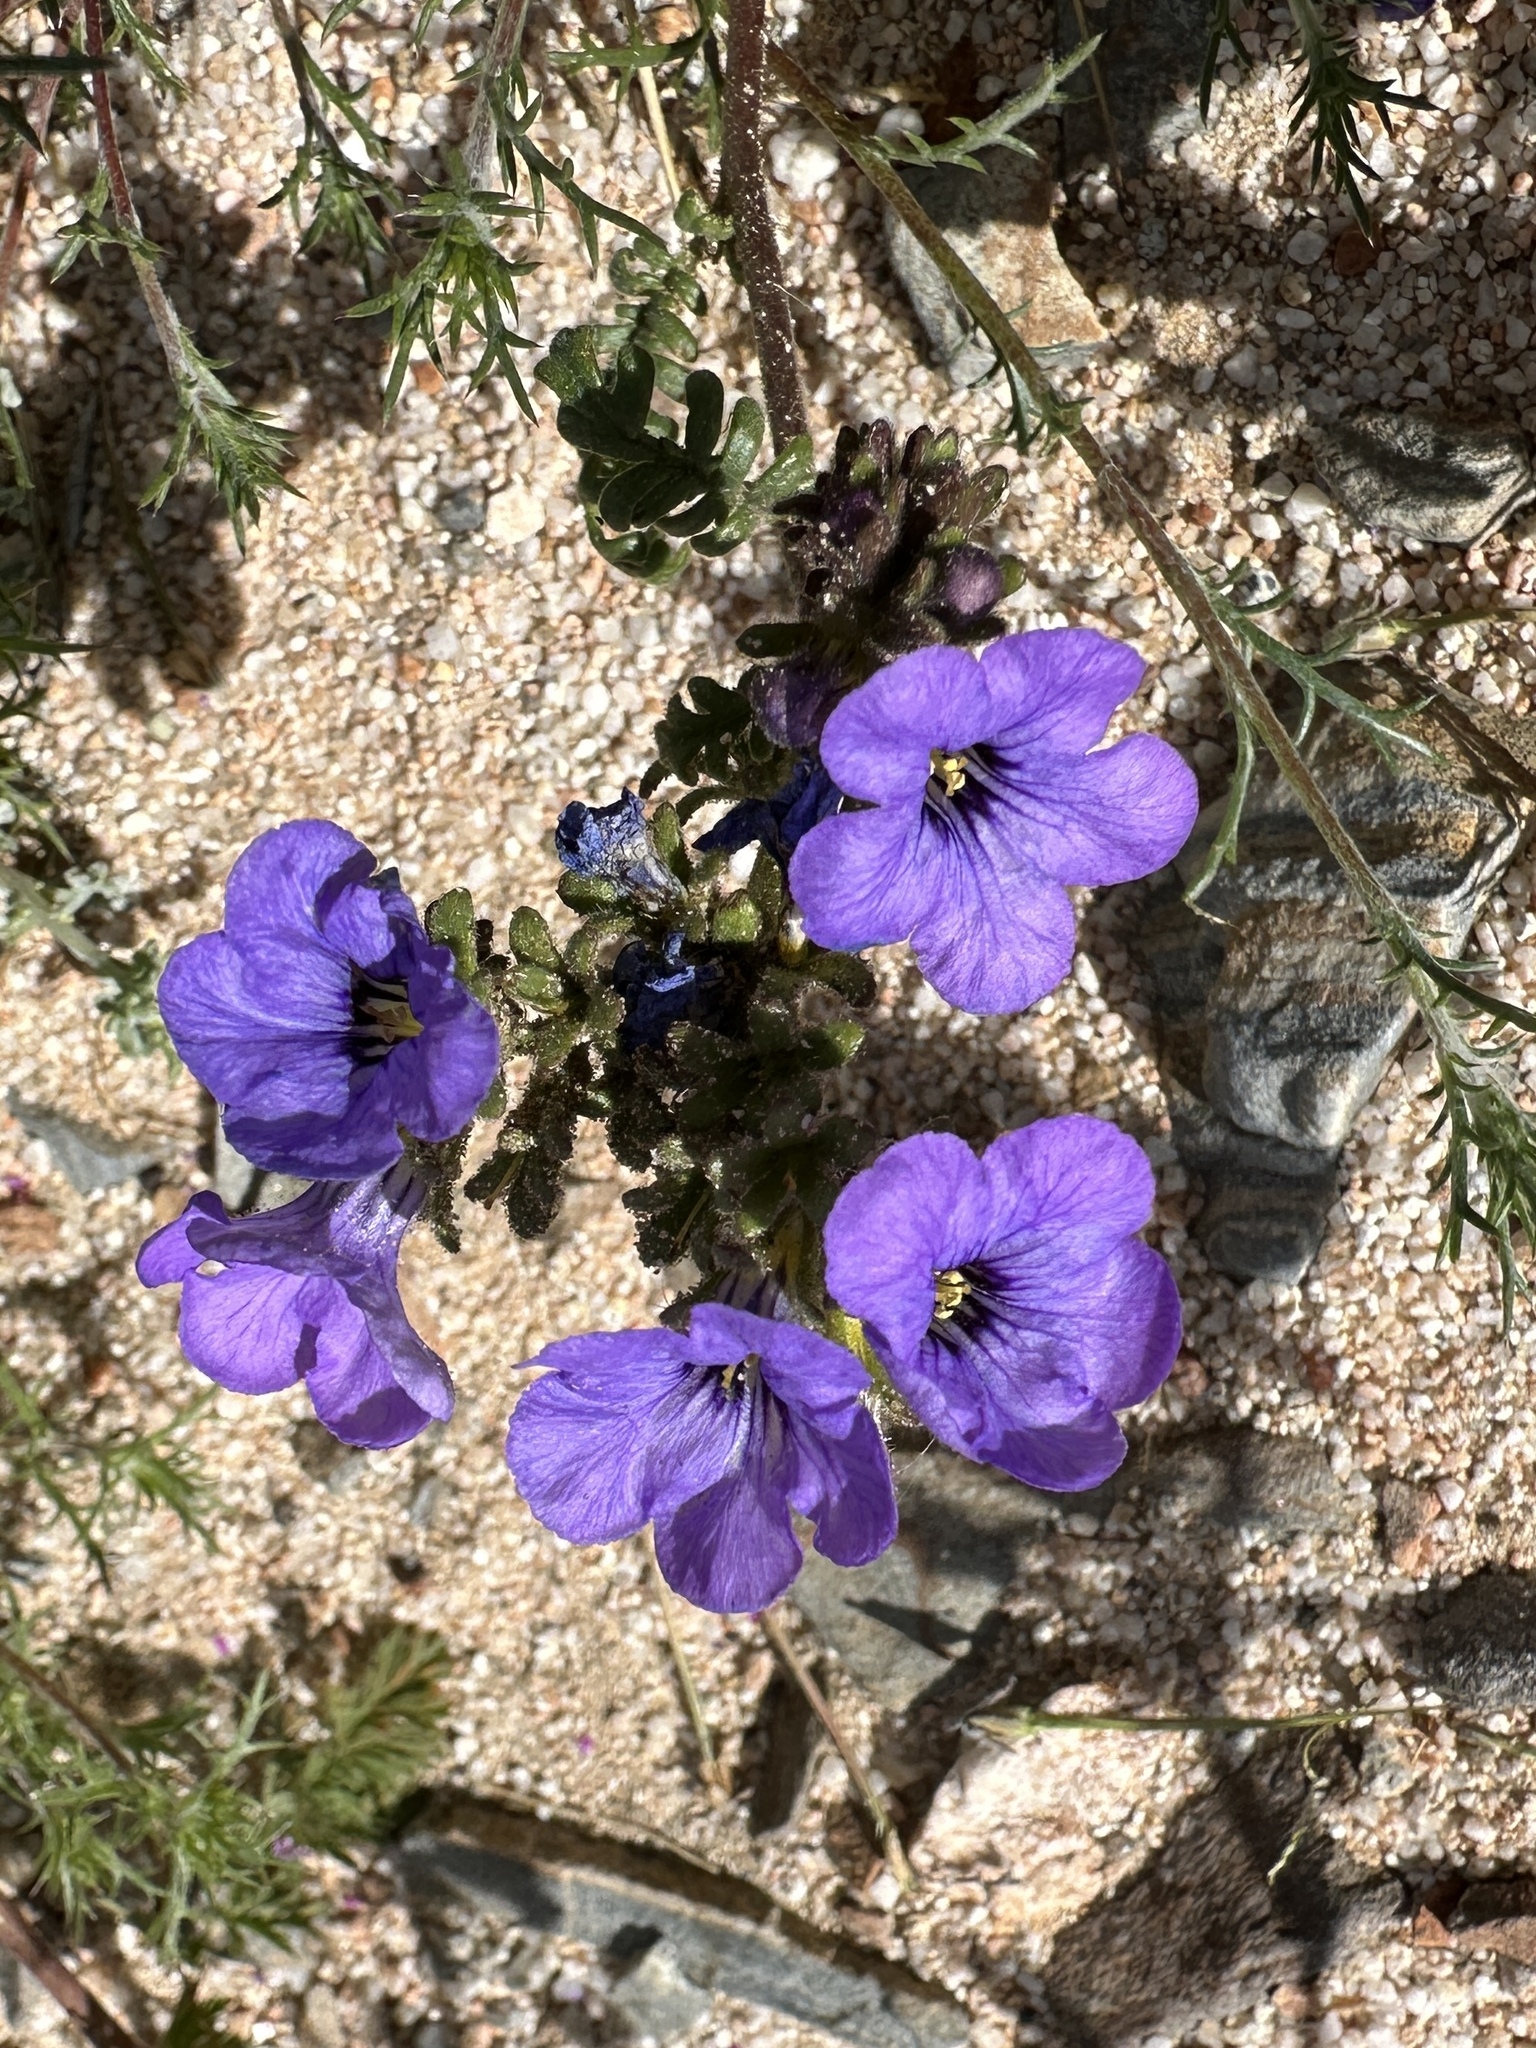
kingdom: Plantae
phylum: Tracheophyta
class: Magnoliopsida
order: Boraginales
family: Hydrophyllaceae
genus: Phacelia
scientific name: Phacelia fremontii
